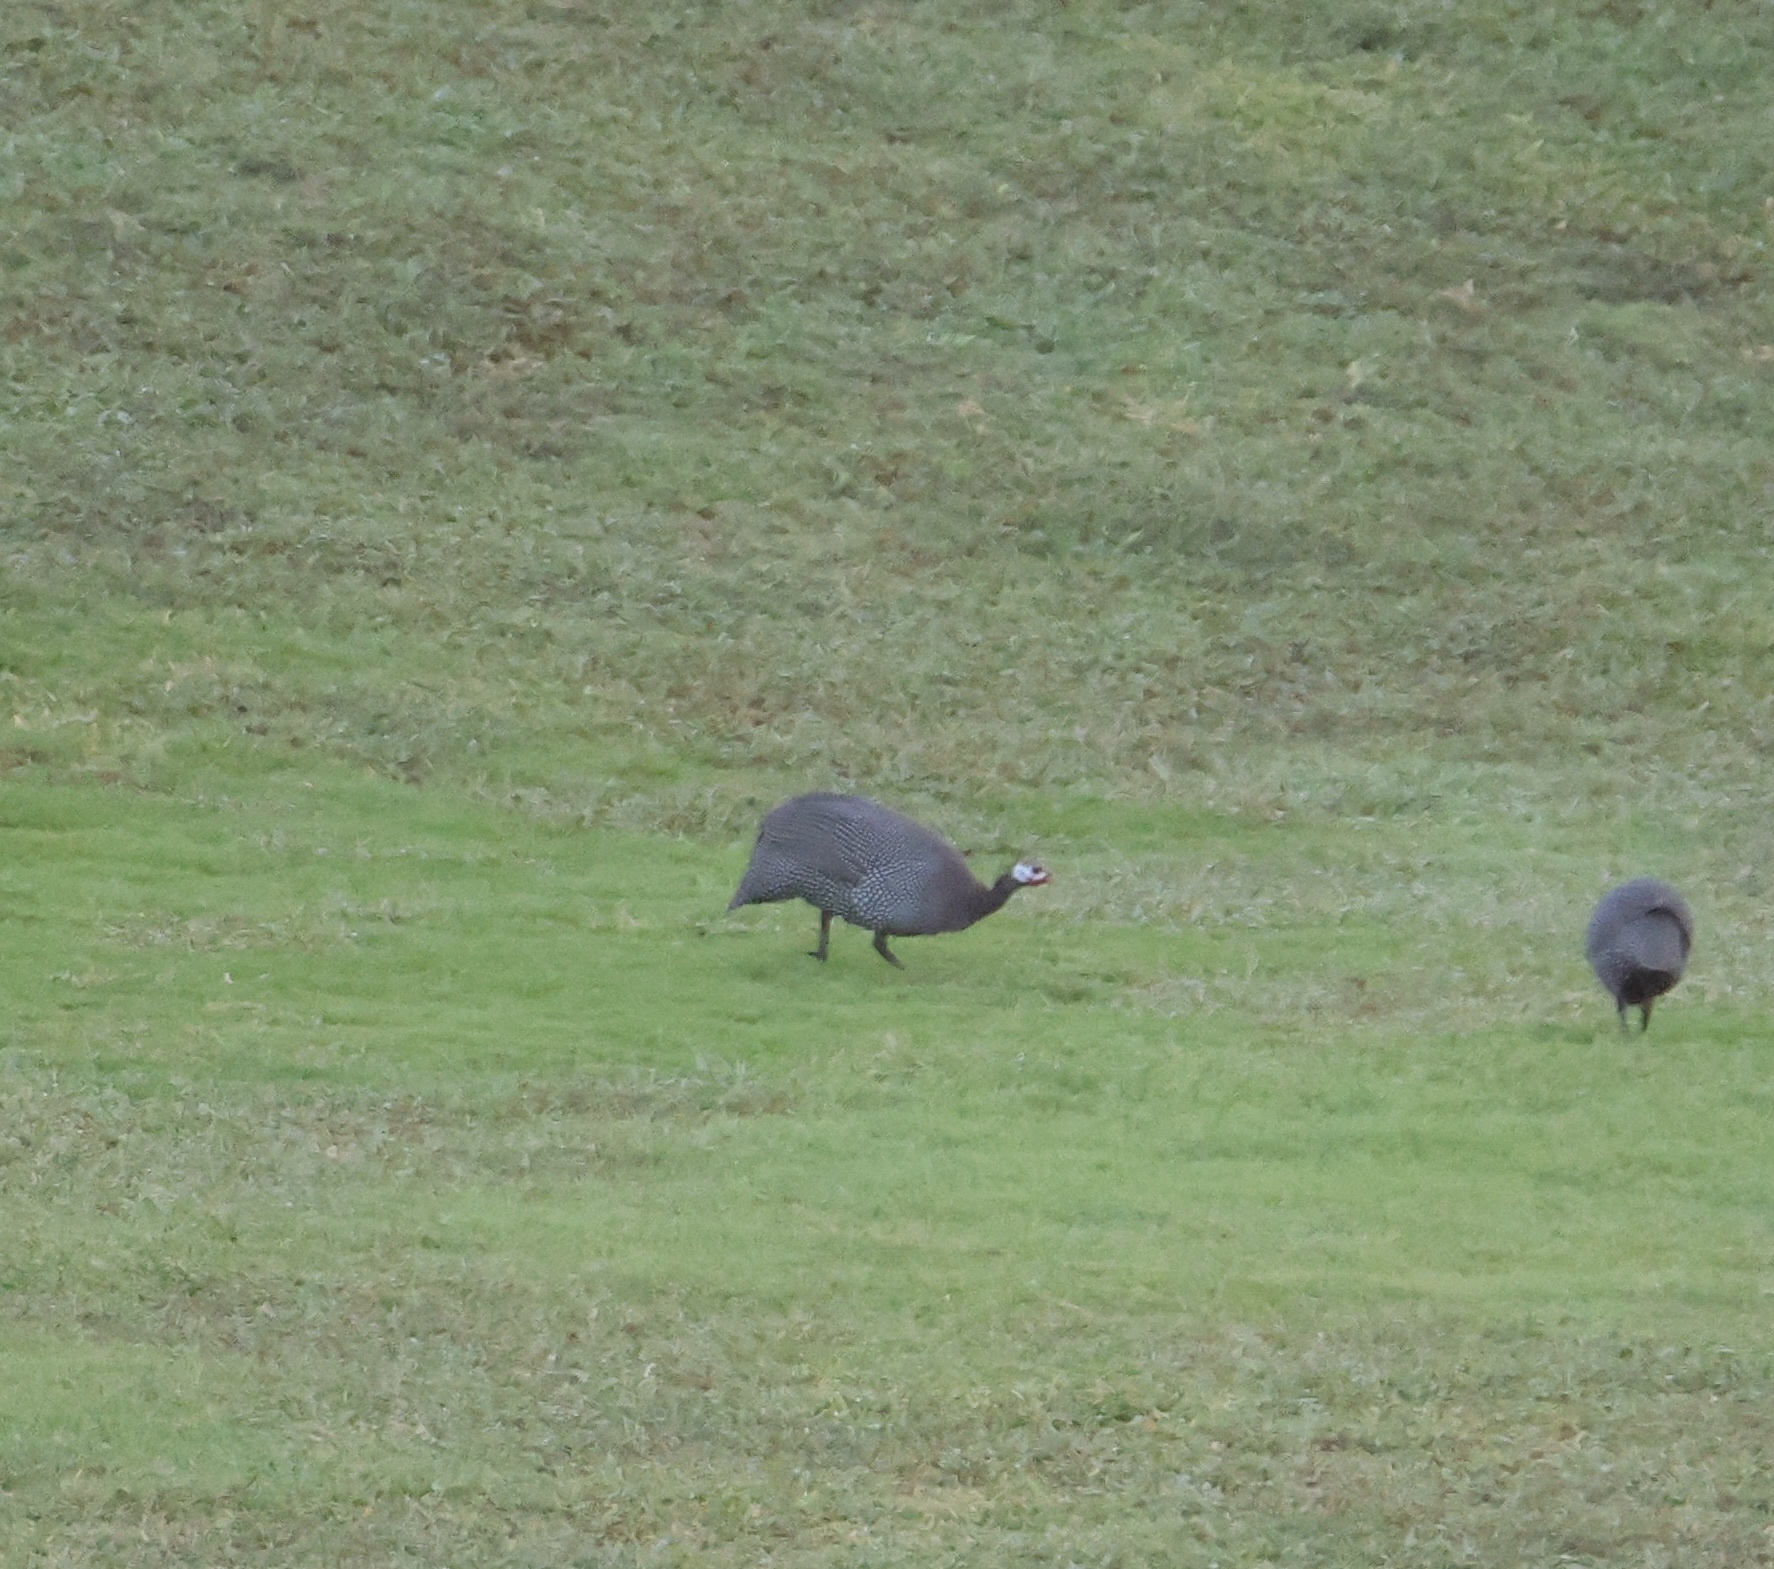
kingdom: Animalia
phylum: Chordata
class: Aves
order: Galliformes
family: Numididae
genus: Numida
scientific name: Numida meleagris
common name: Helmeted guineafowl
